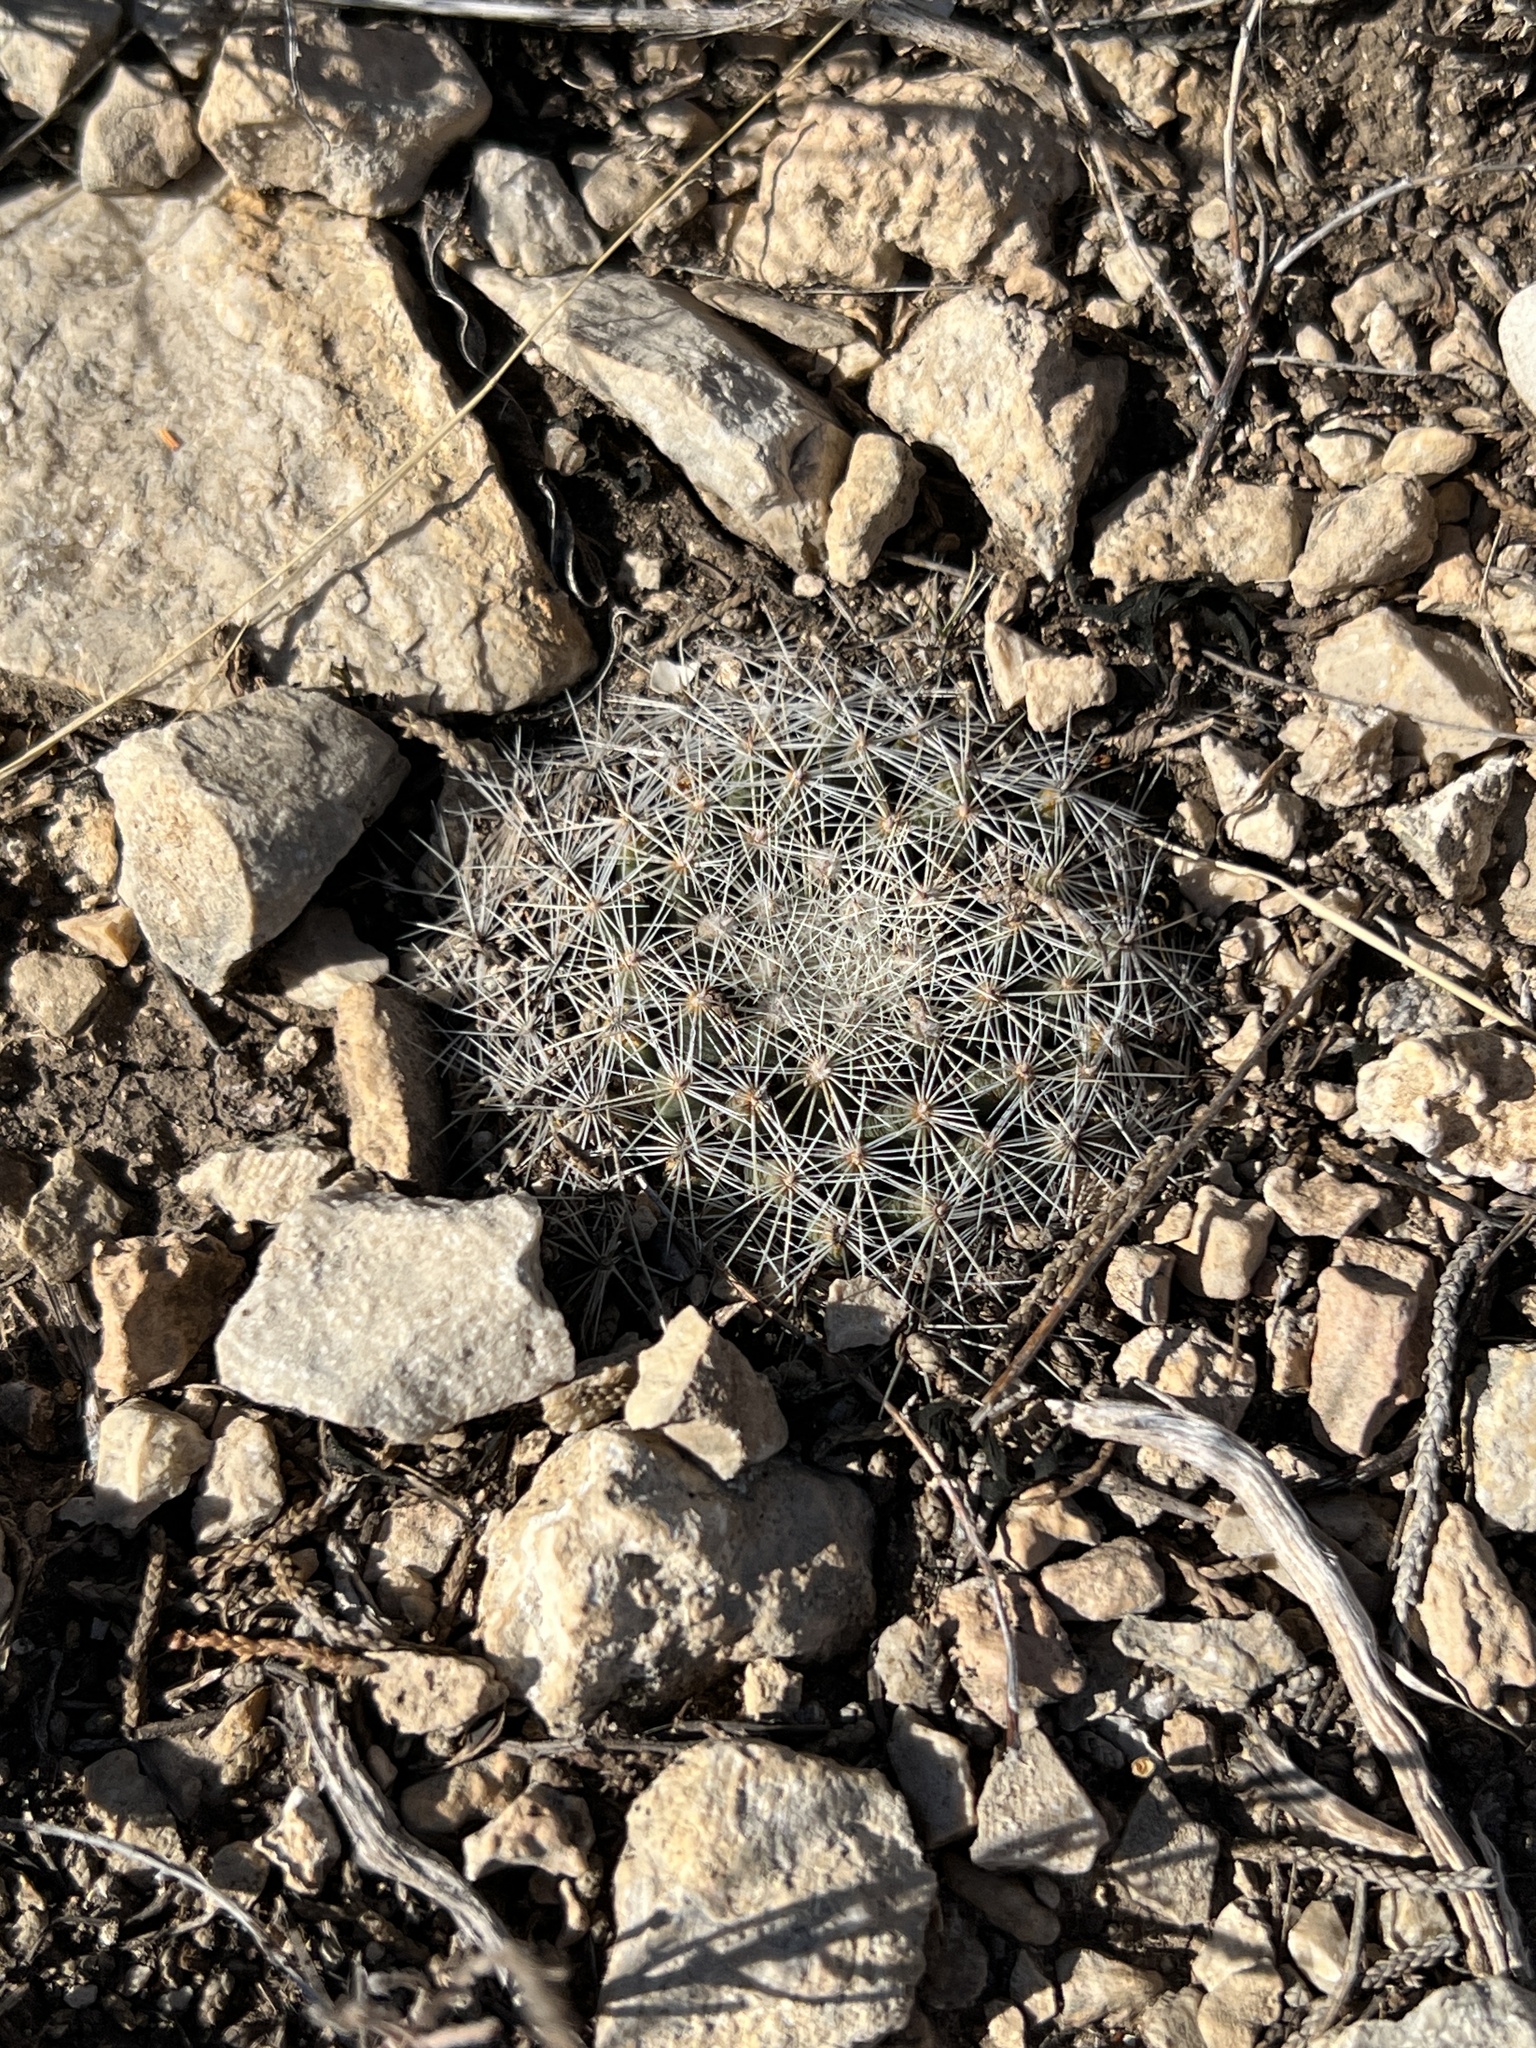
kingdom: Plantae
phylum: Tracheophyta
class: Magnoliopsida
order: Caryophyllales
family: Cactaceae
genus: Mammillaria
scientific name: Mammillaria heyderi
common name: Little nipple cactus
